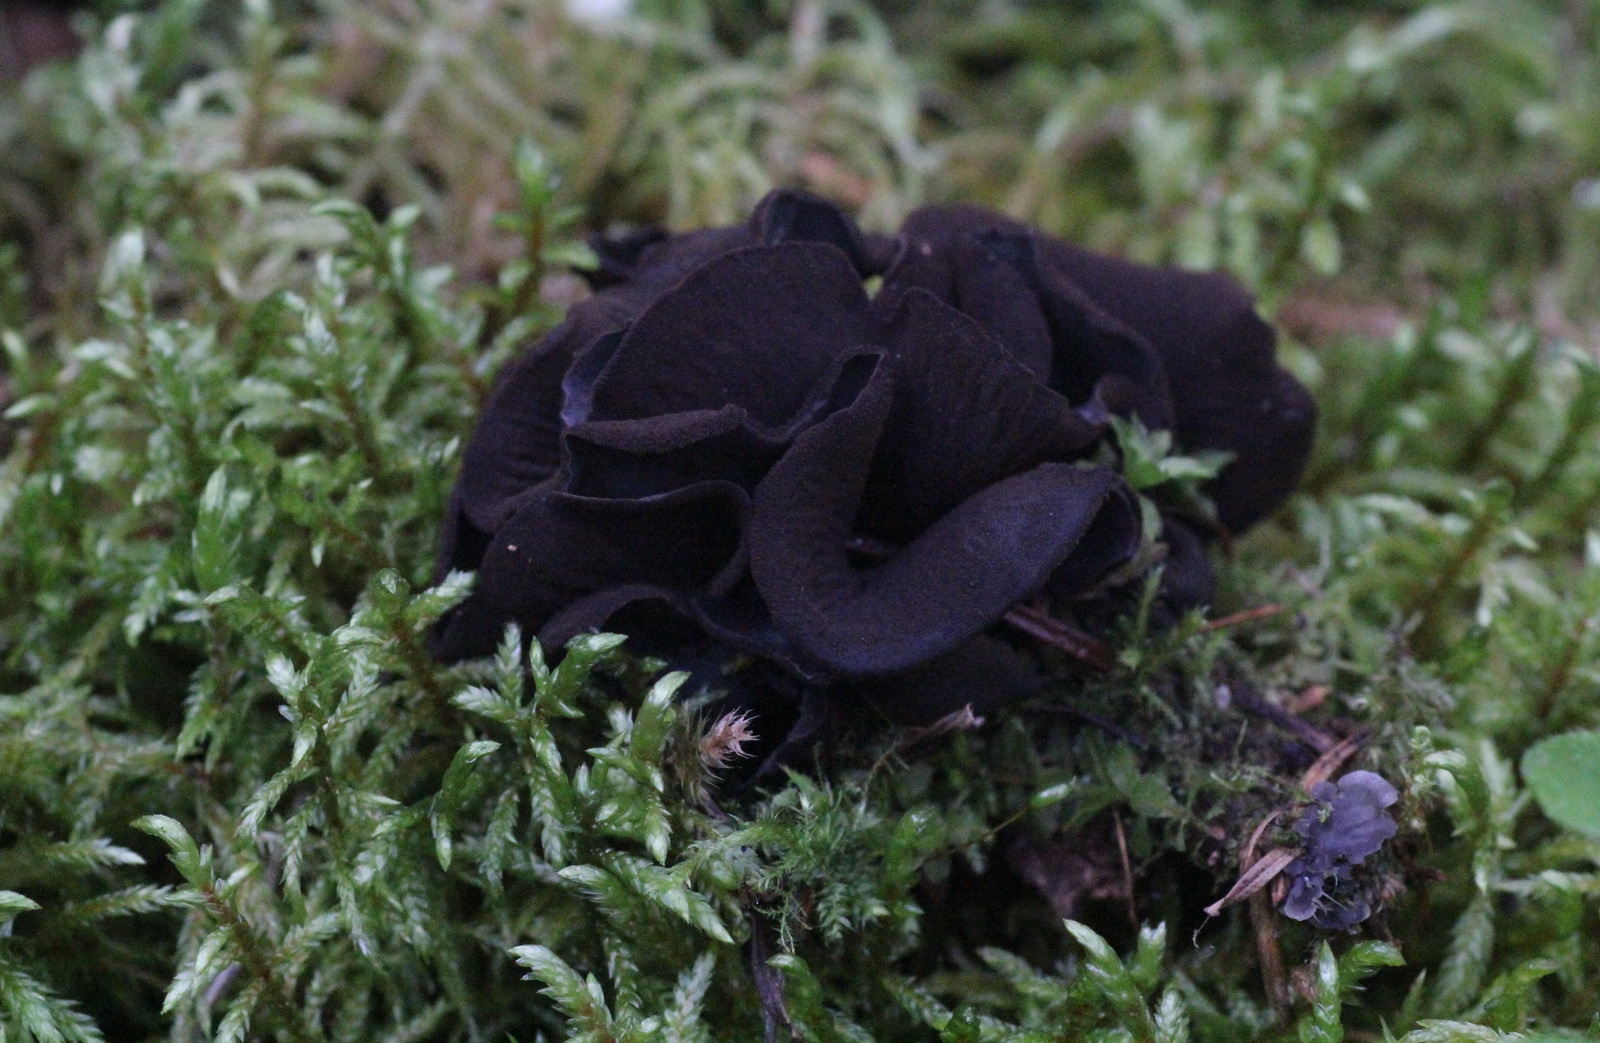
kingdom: Fungi
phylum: Ascomycota
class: Leotiomycetes
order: Helotiales
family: Cordieritidaceae
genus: Diplocarpa
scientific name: Diplocarpa irregularis
